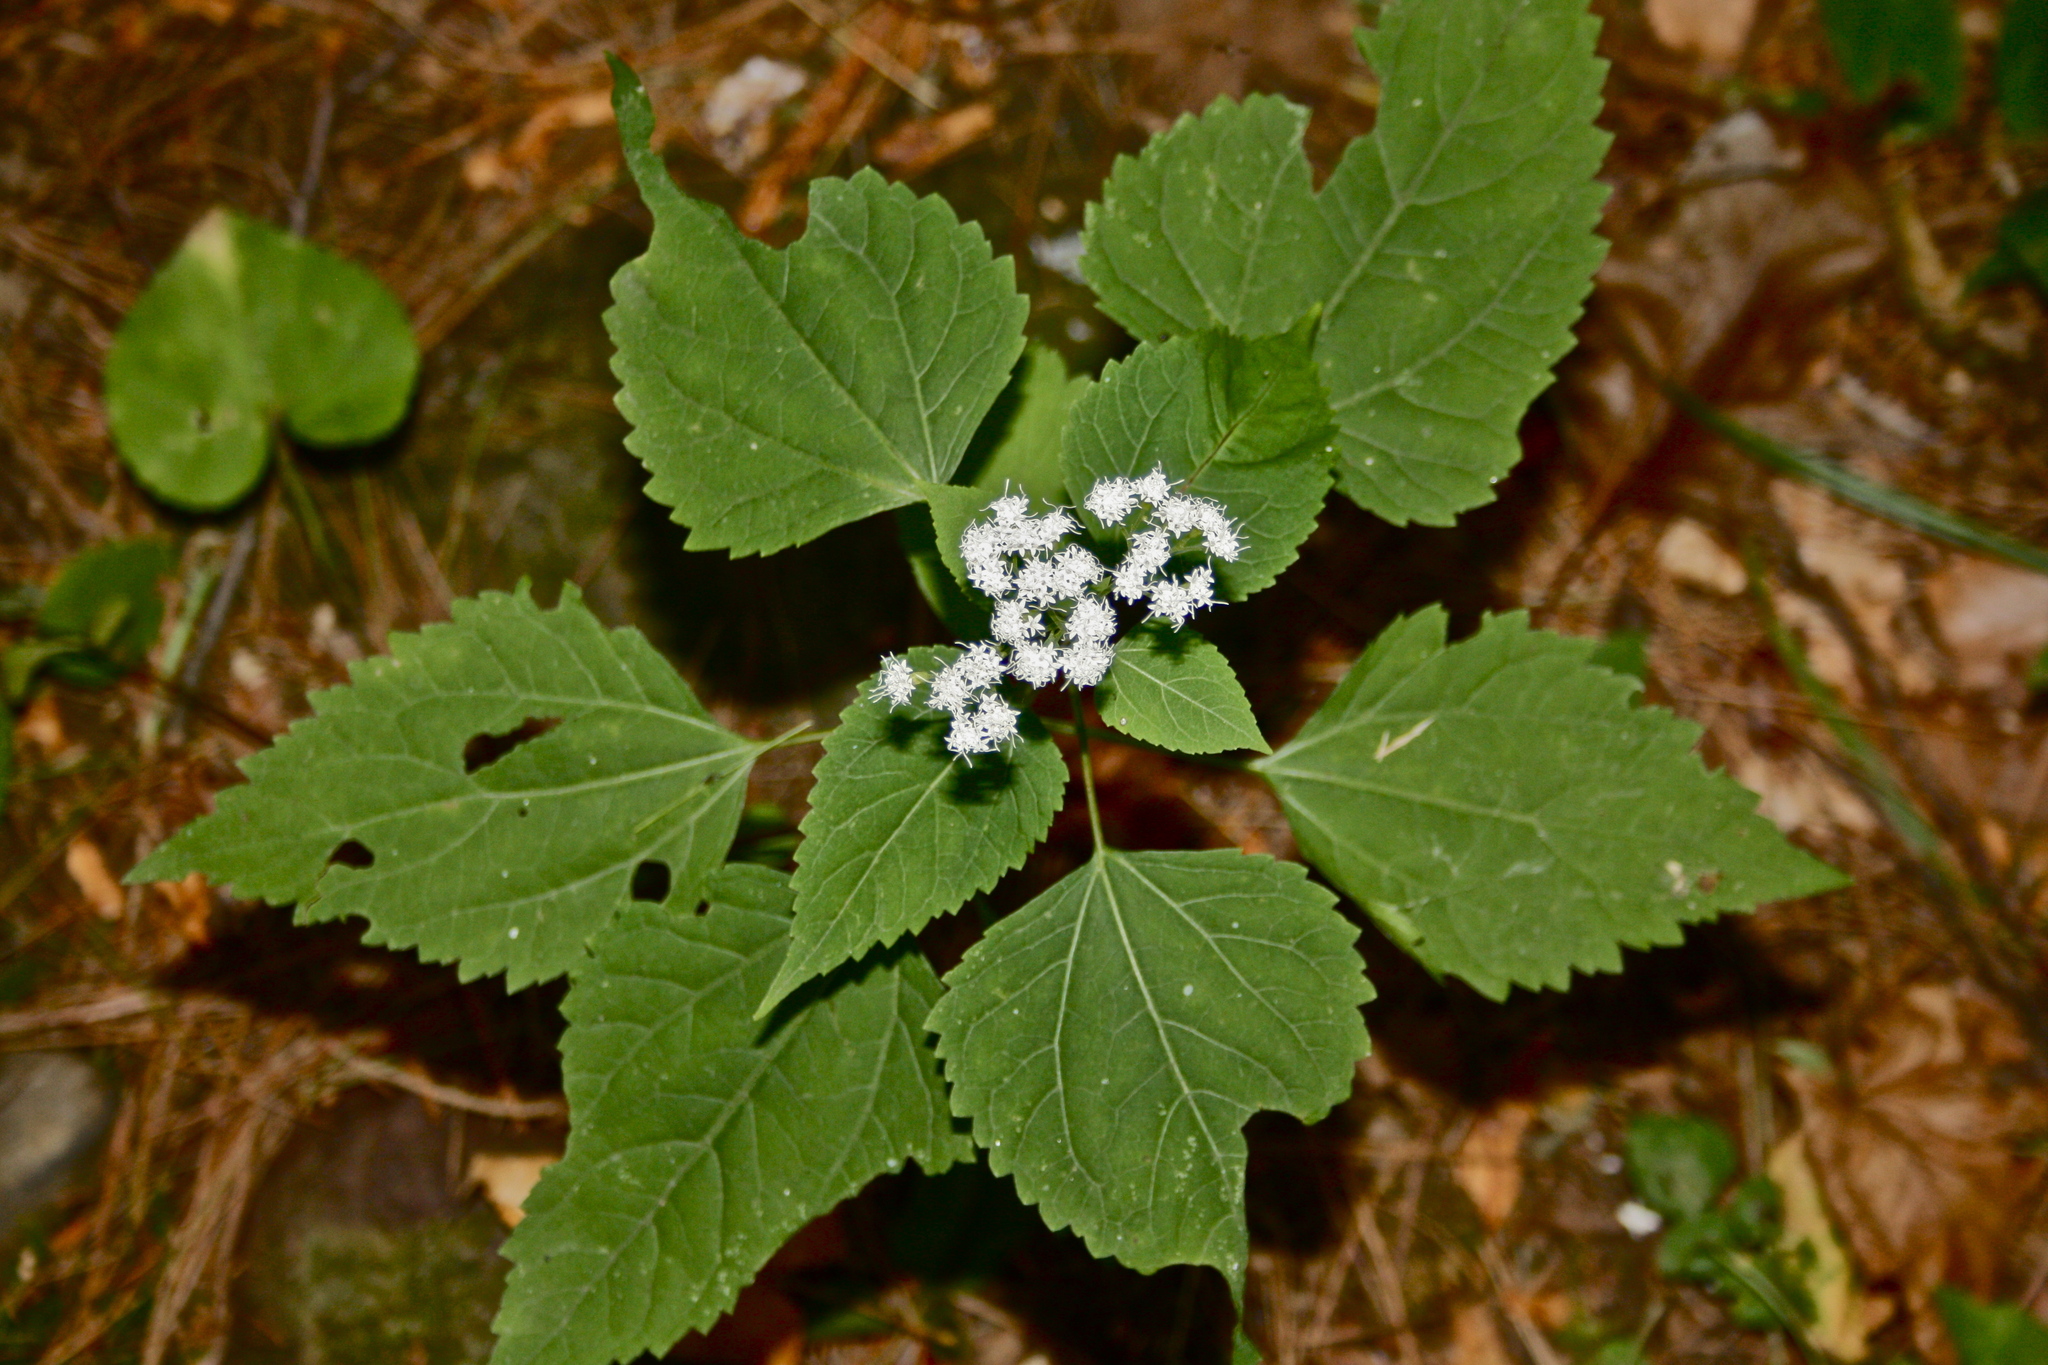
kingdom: Plantae
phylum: Tracheophyta
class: Magnoliopsida
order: Asterales
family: Asteraceae
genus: Ageratina
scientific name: Ageratina altissima
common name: White snakeroot
